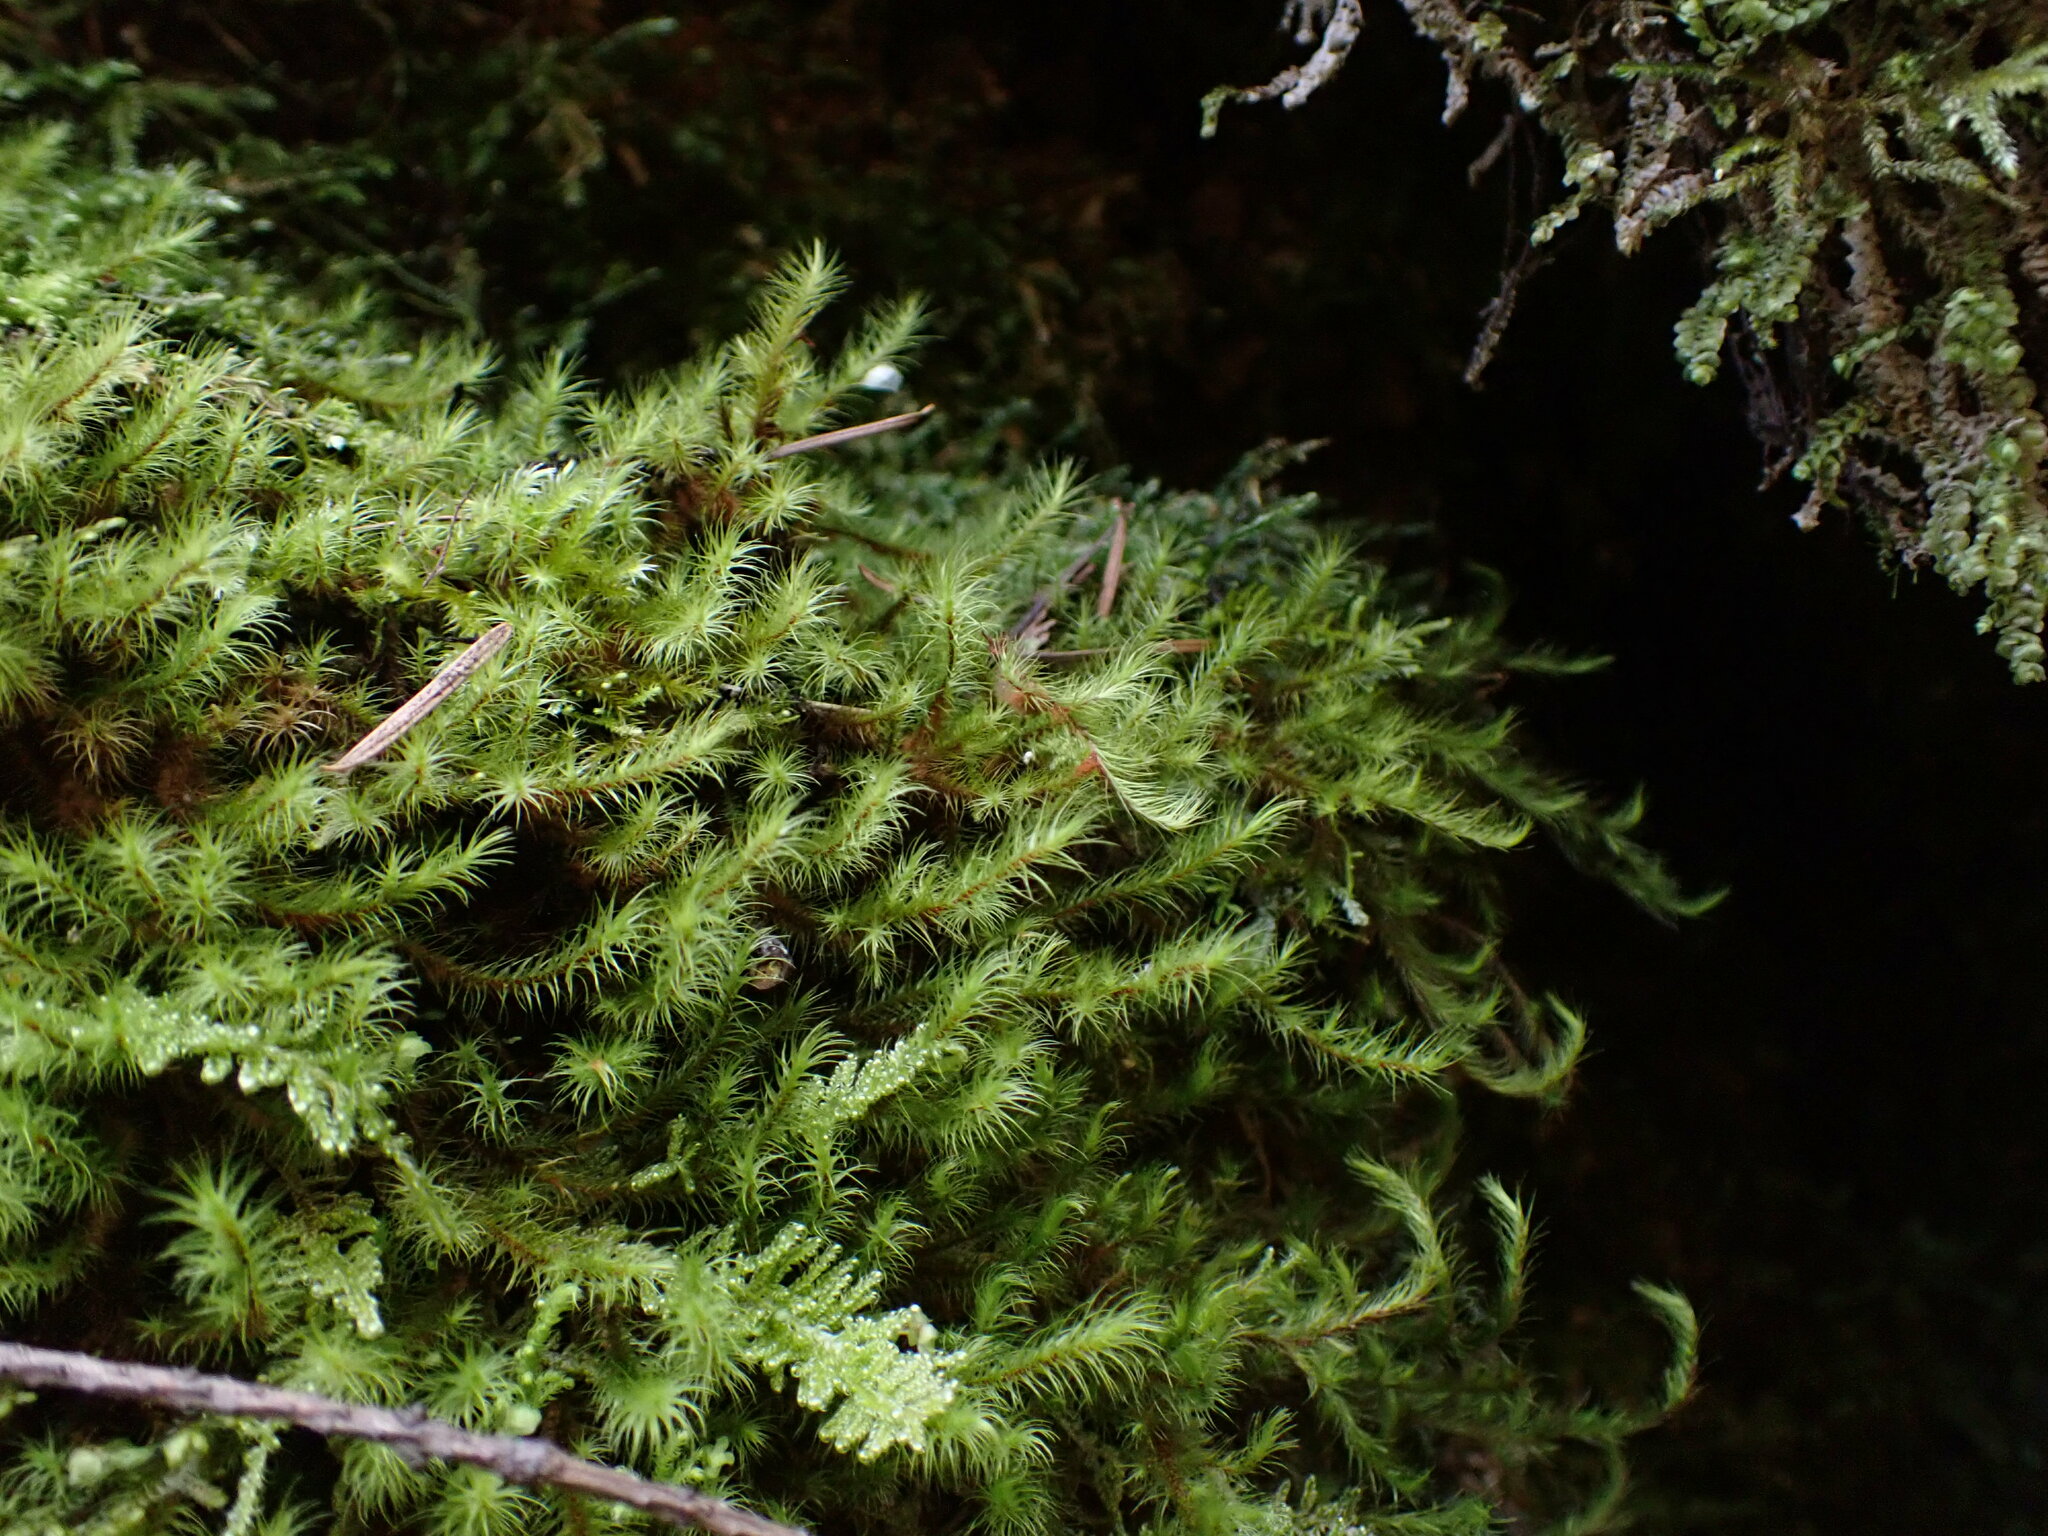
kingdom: Plantae
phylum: Bryophyta
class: Bryopsida
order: Bartramiales
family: Bartramiaceae
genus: Anacolia
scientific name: Anacolia menziesii
